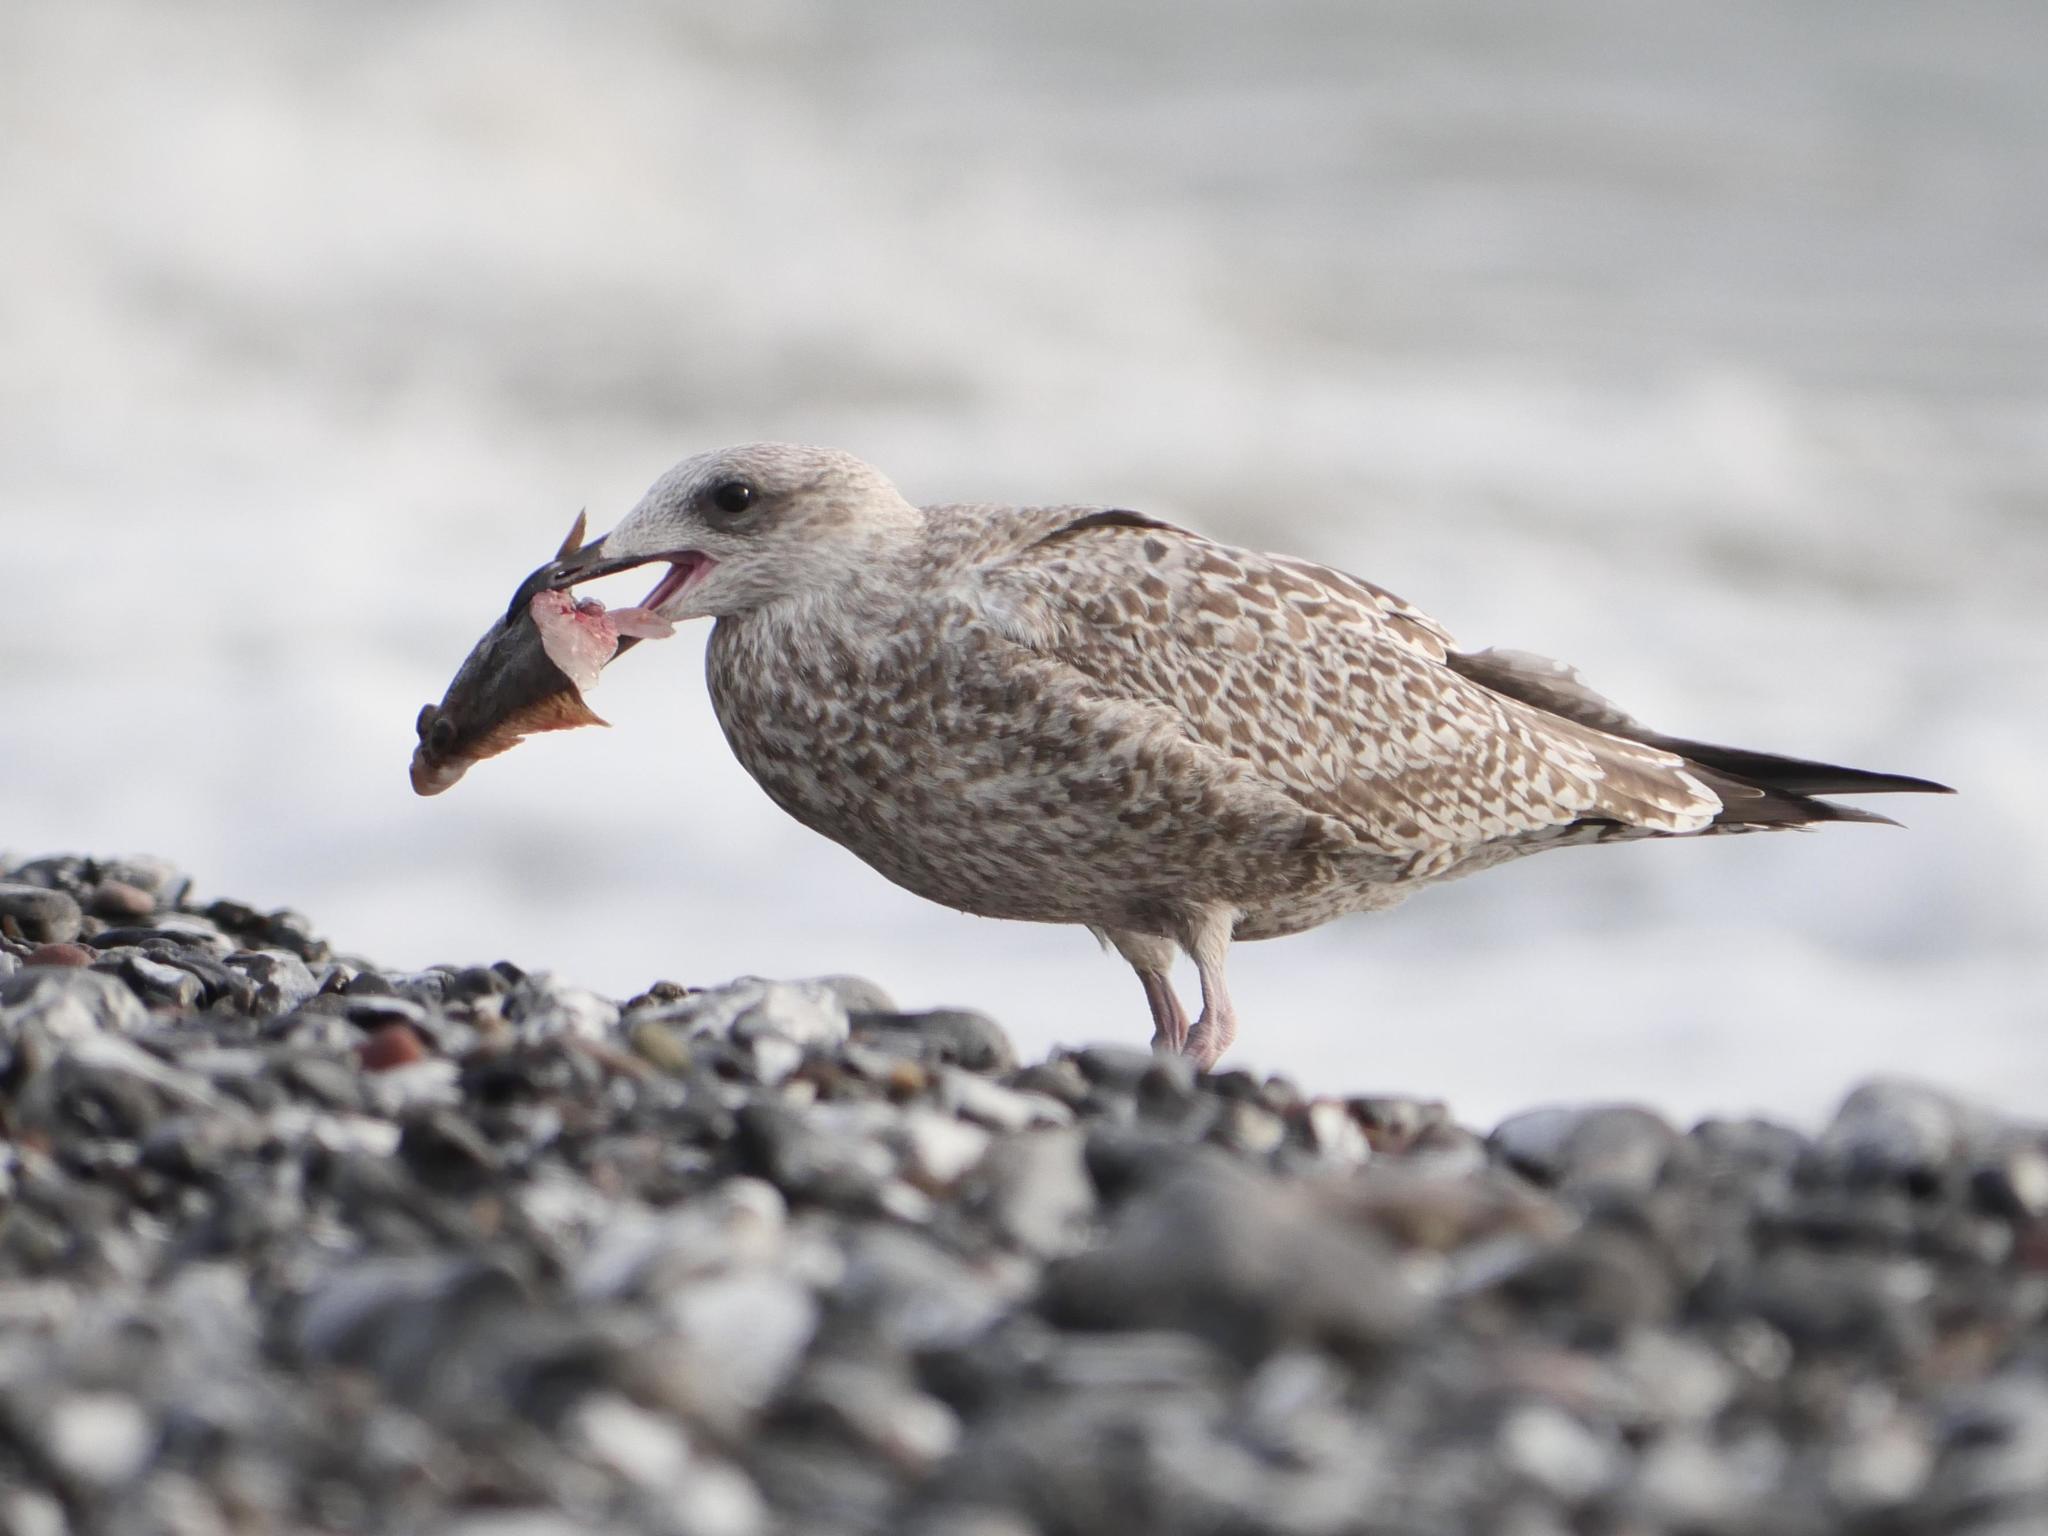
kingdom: Animalia
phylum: Chordata
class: Aves
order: Charadriiformes
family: Laridae
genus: Larus
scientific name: Larus argentatus
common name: Herring gull
